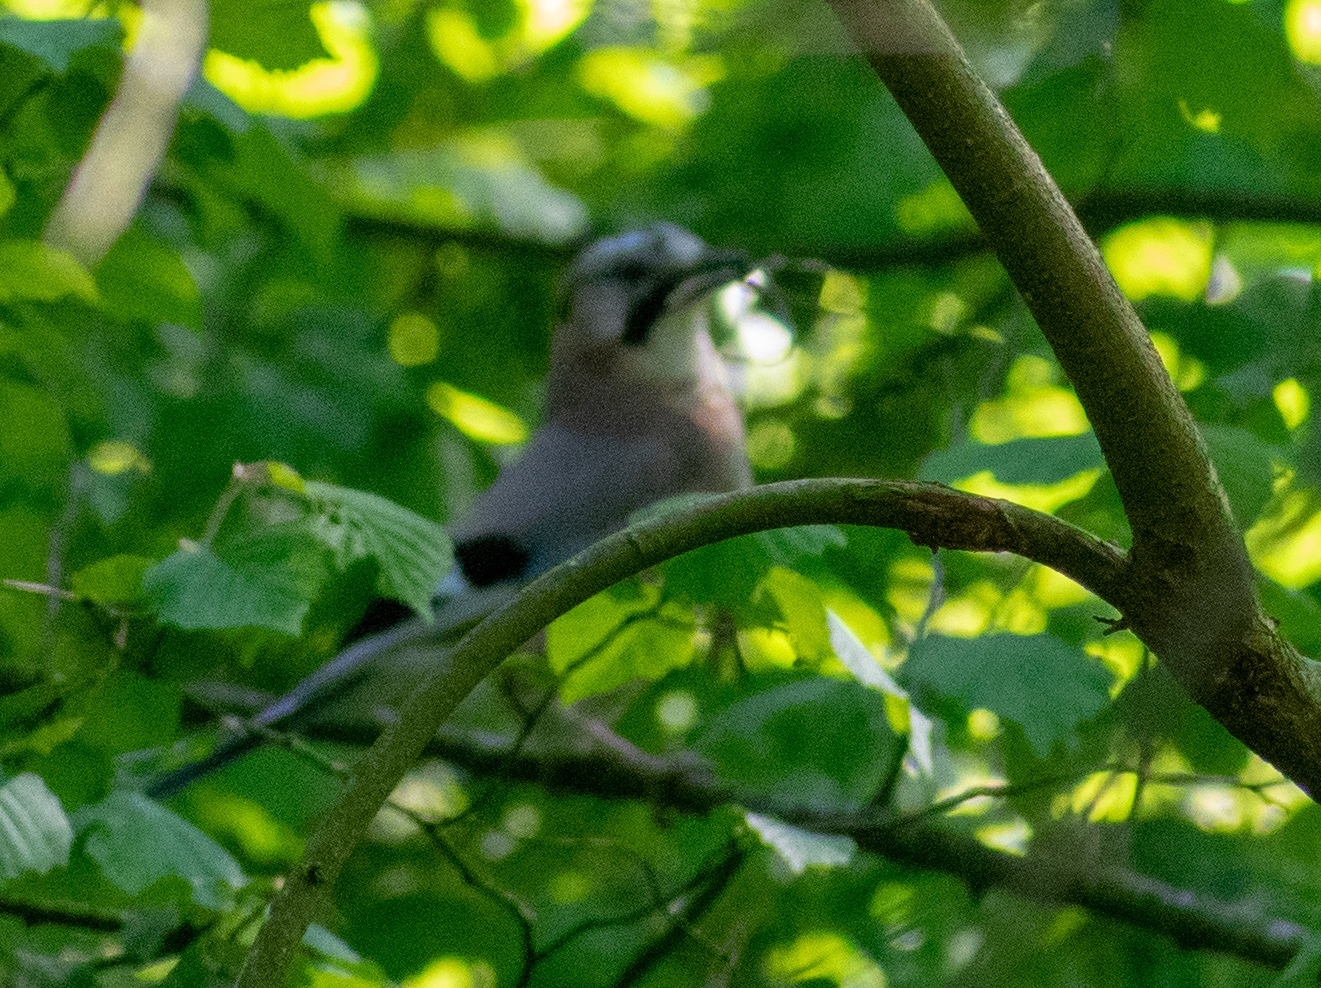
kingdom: Animalia
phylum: Chordata
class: Aves
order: Passeriformes
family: Corvidae
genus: Garrulus
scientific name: Garrulus glandarius
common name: Eurasian jay
